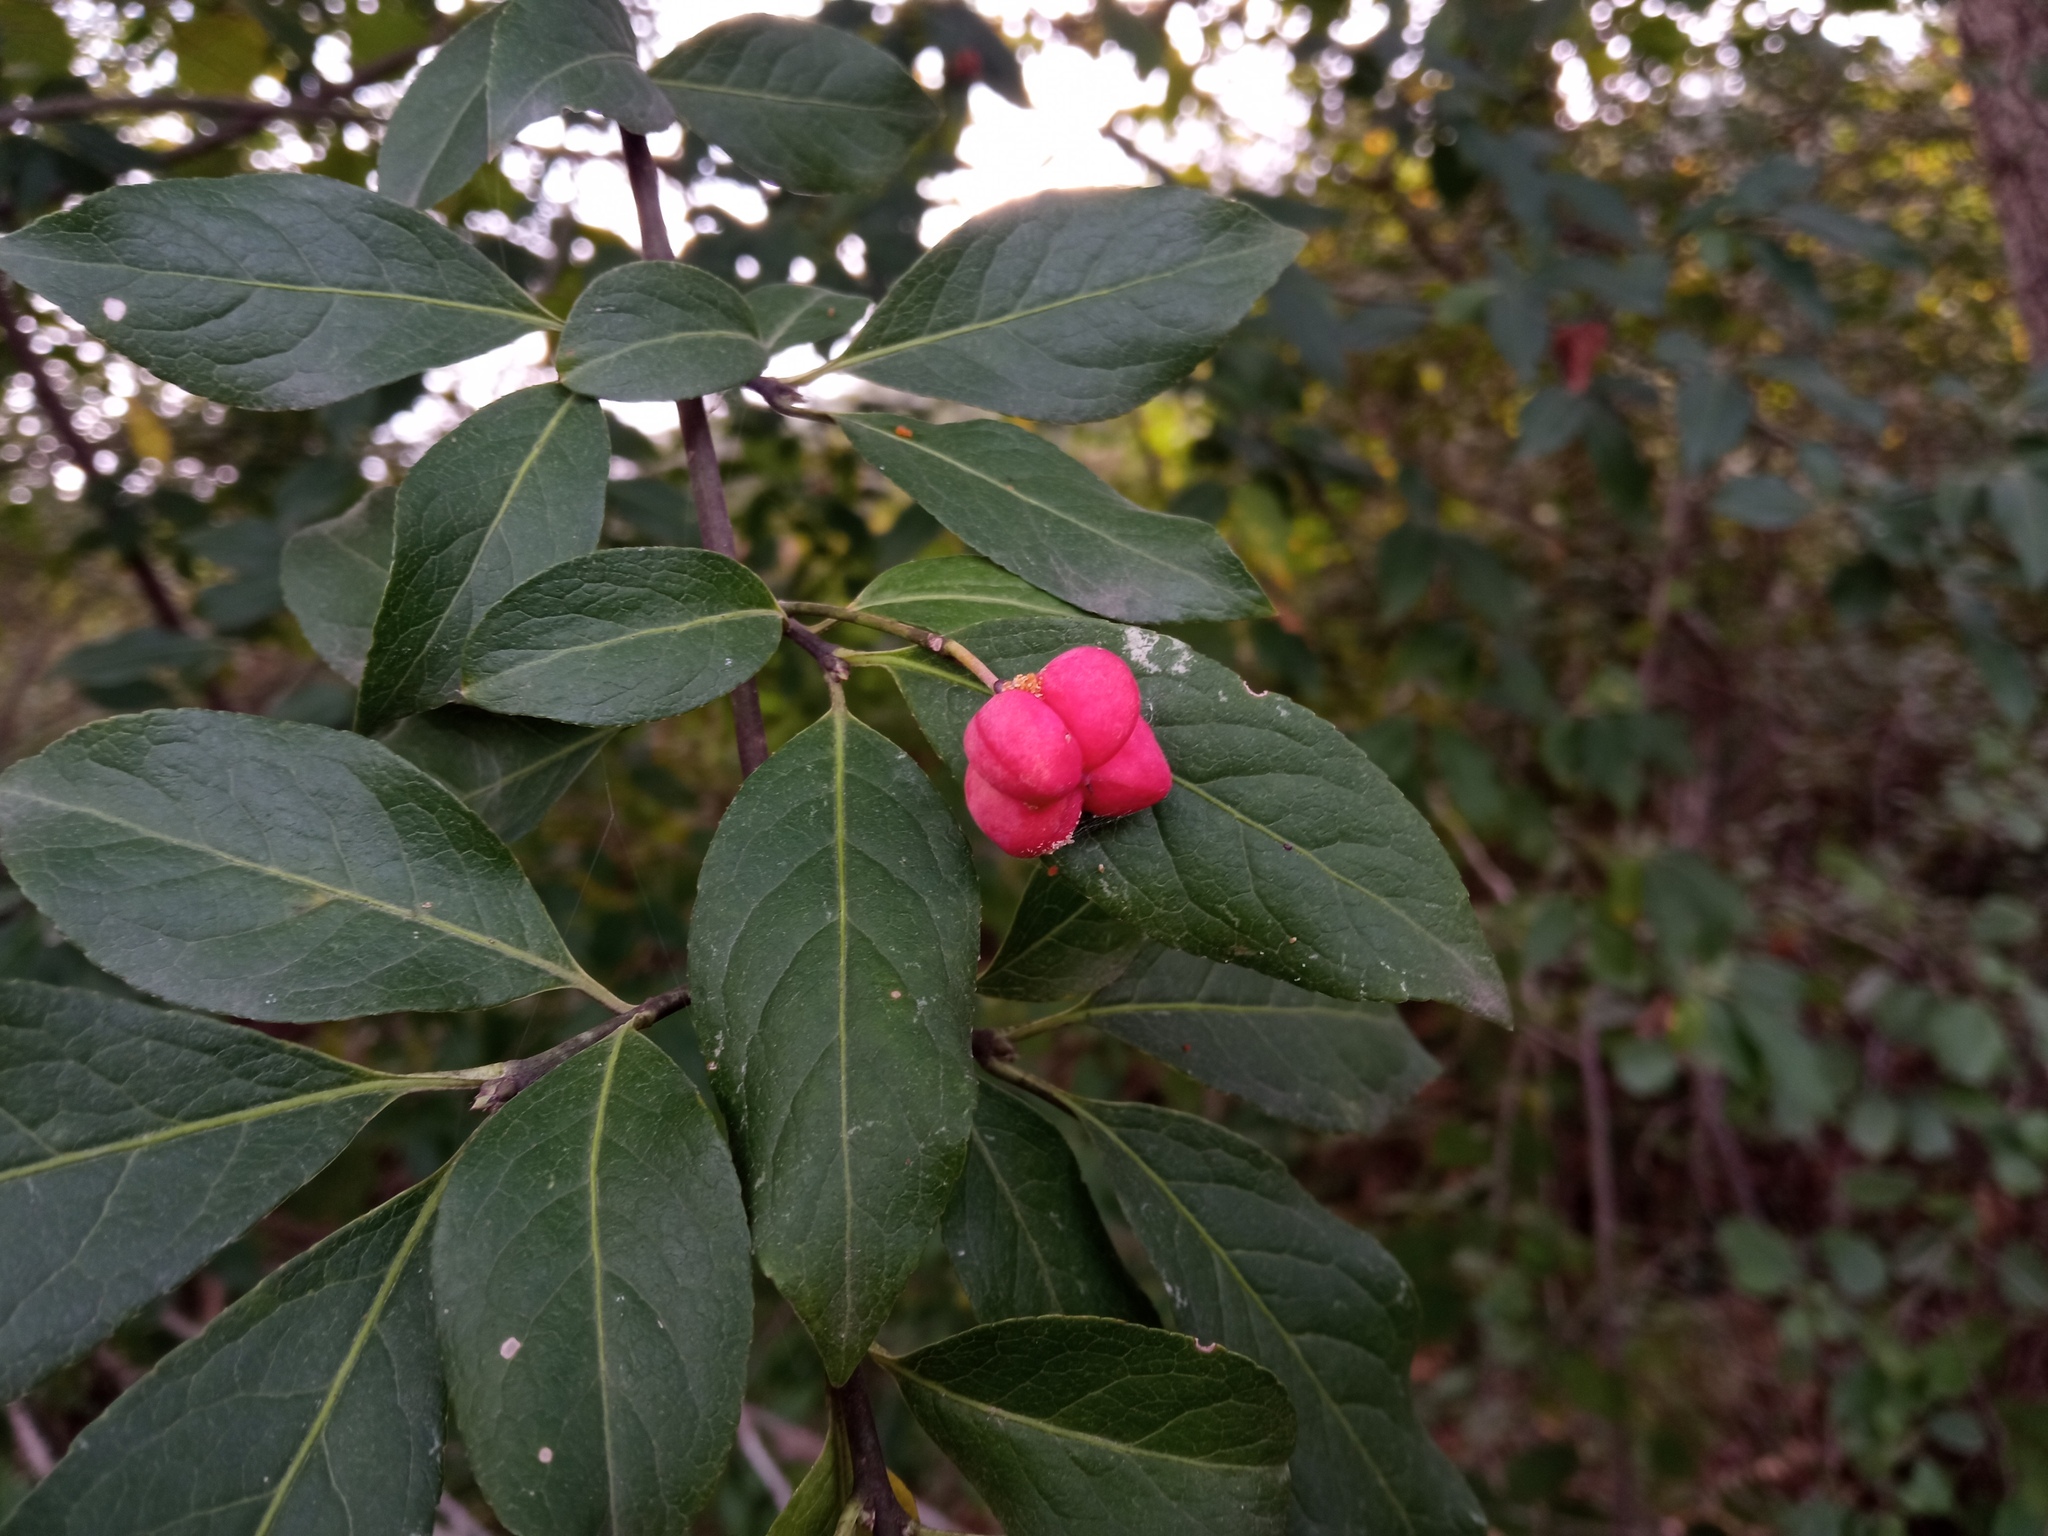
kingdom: Plantae
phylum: Tracheophyta
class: Magnoliopsida
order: Celastrales
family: Celastraceae
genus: Euonymus
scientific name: Euonymus europaeus
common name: Spindle
